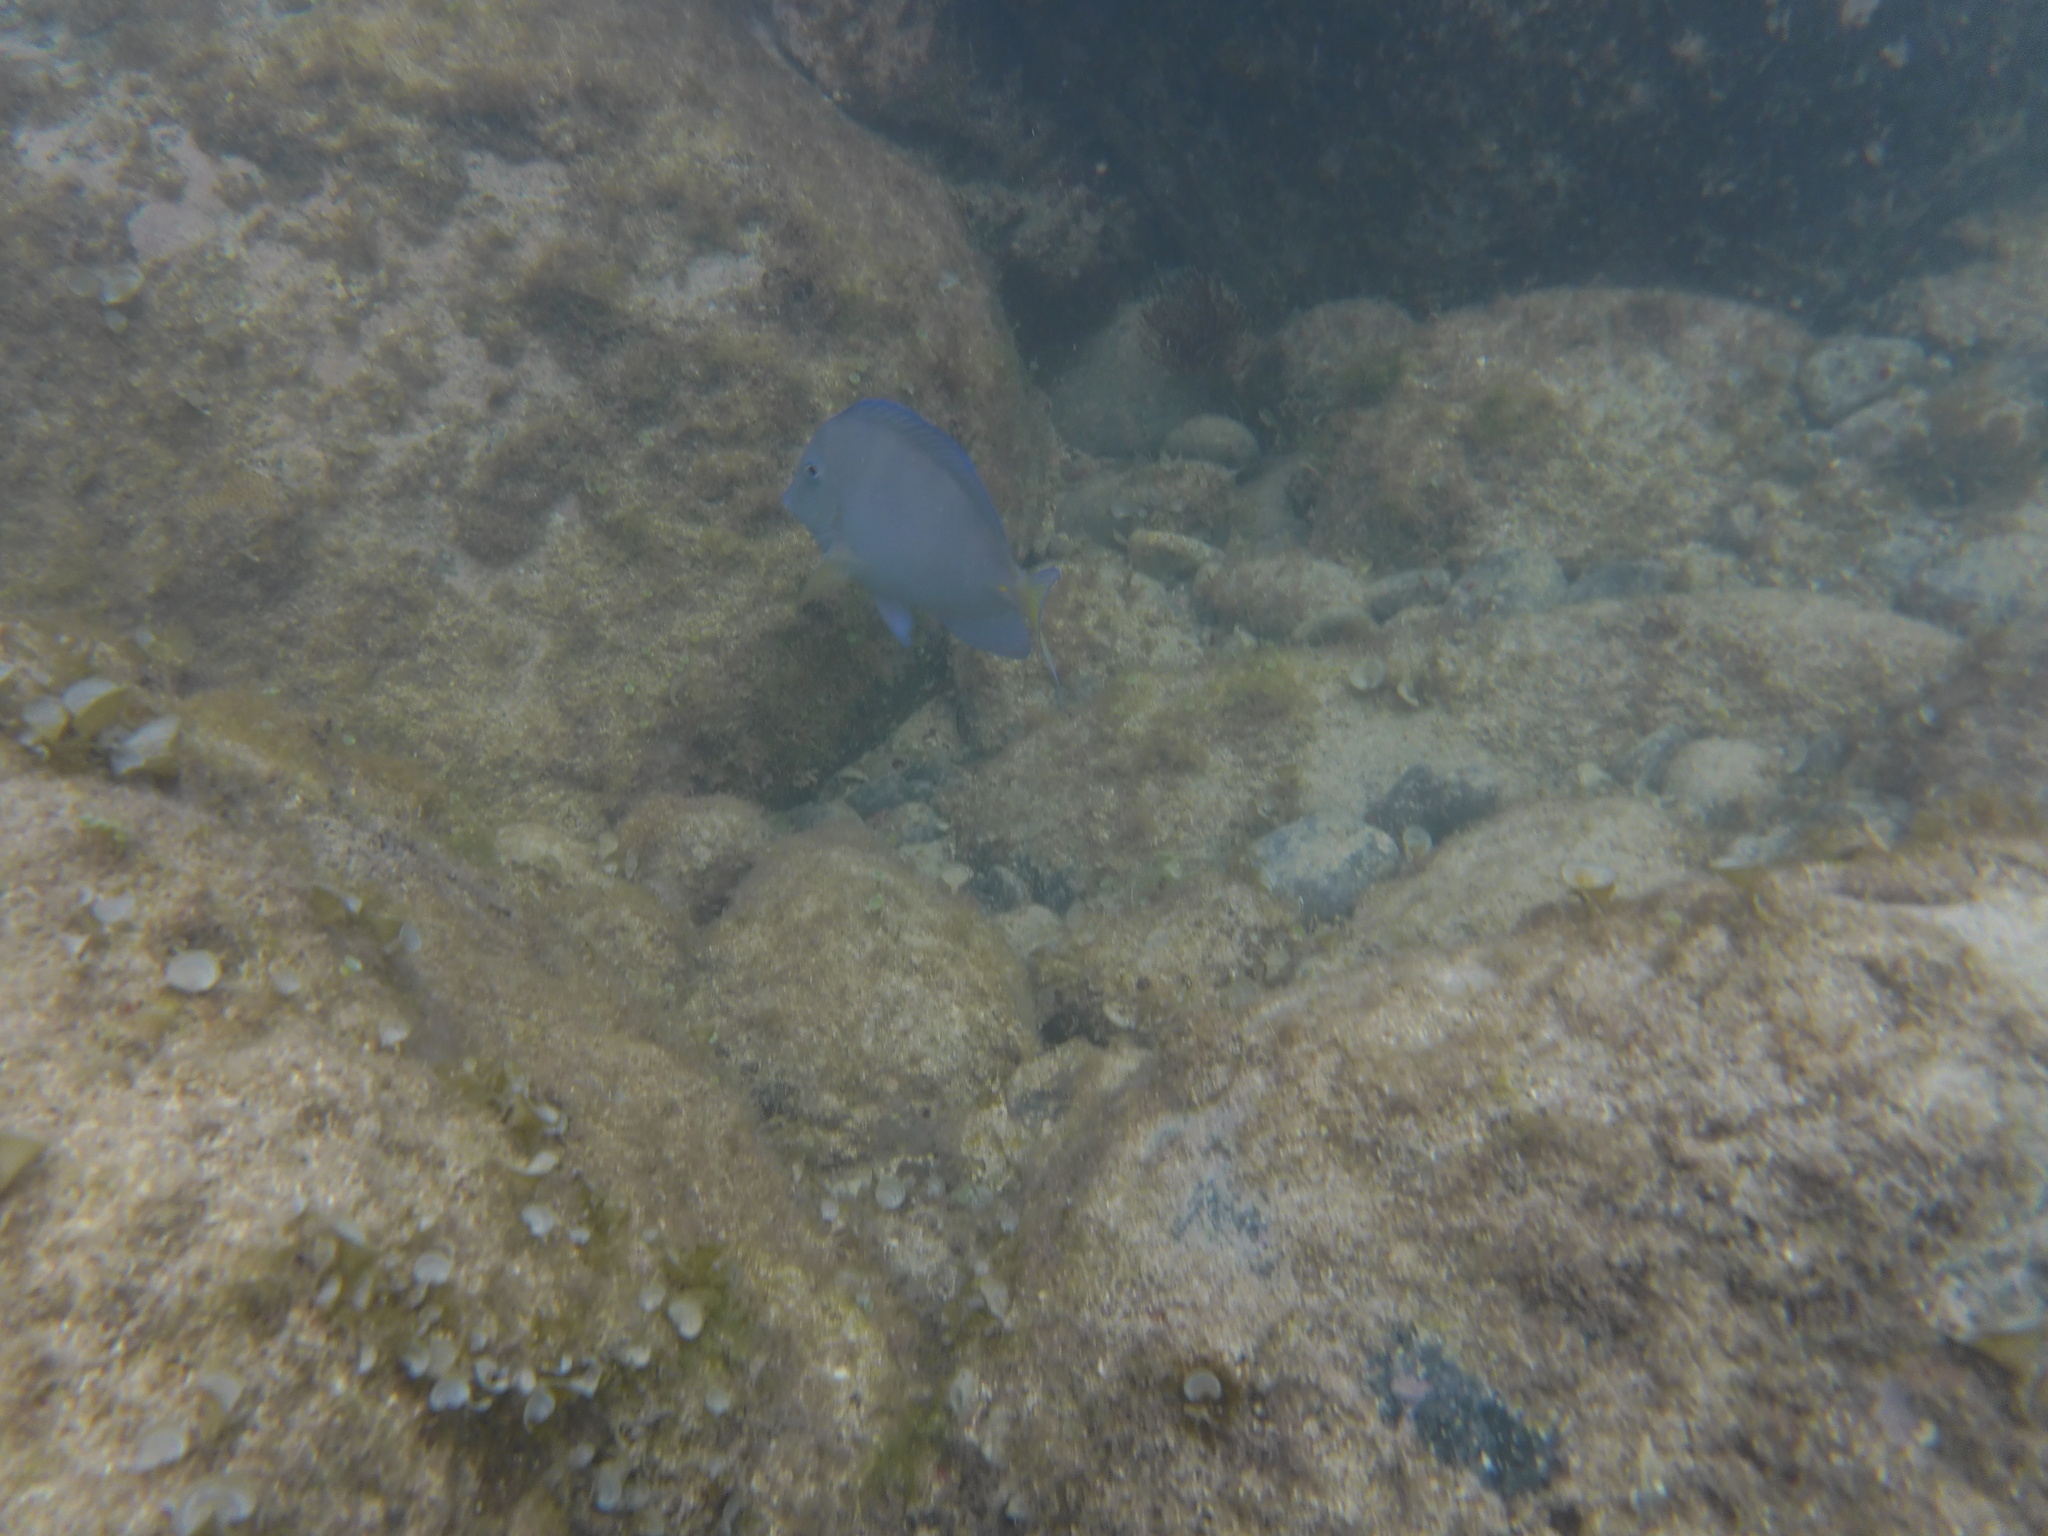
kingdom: Animalia
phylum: Chordata
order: Perciformes
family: Acanthuridae
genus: Acanthurus
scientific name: Acanthurus coeruleus
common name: Blue tang
